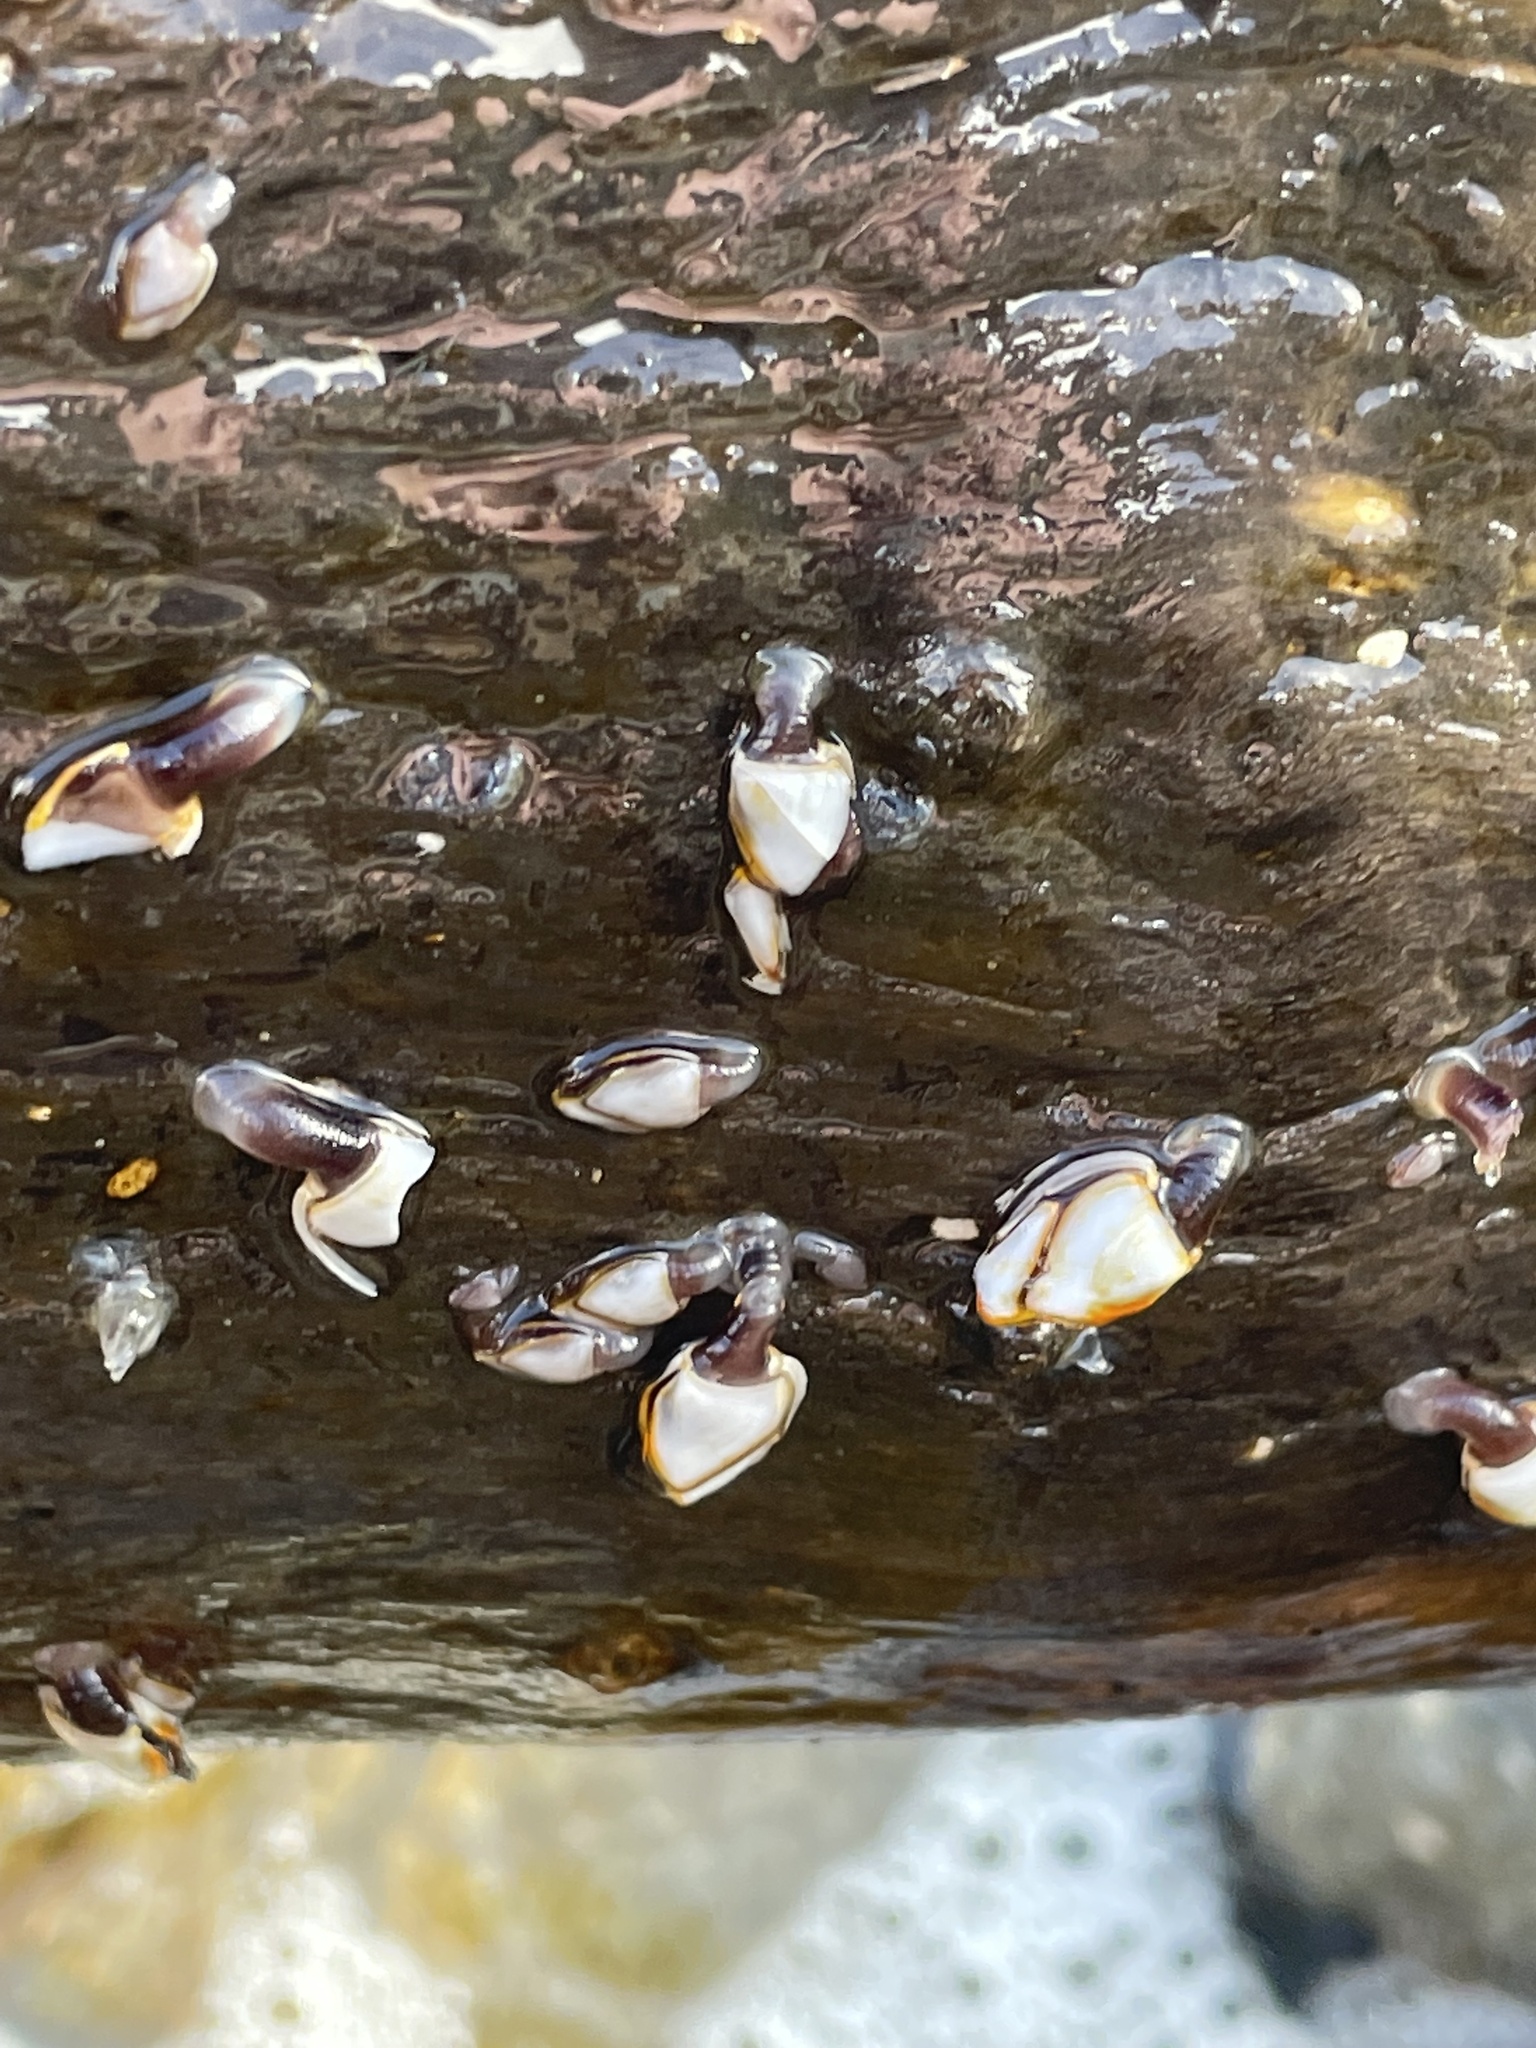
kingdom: Animalia
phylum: Arthropoda
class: Maxillopoda
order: Pedunculata
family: Lepadidae
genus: Lepas
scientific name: Lepas anatifera
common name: Common goose barnacle
